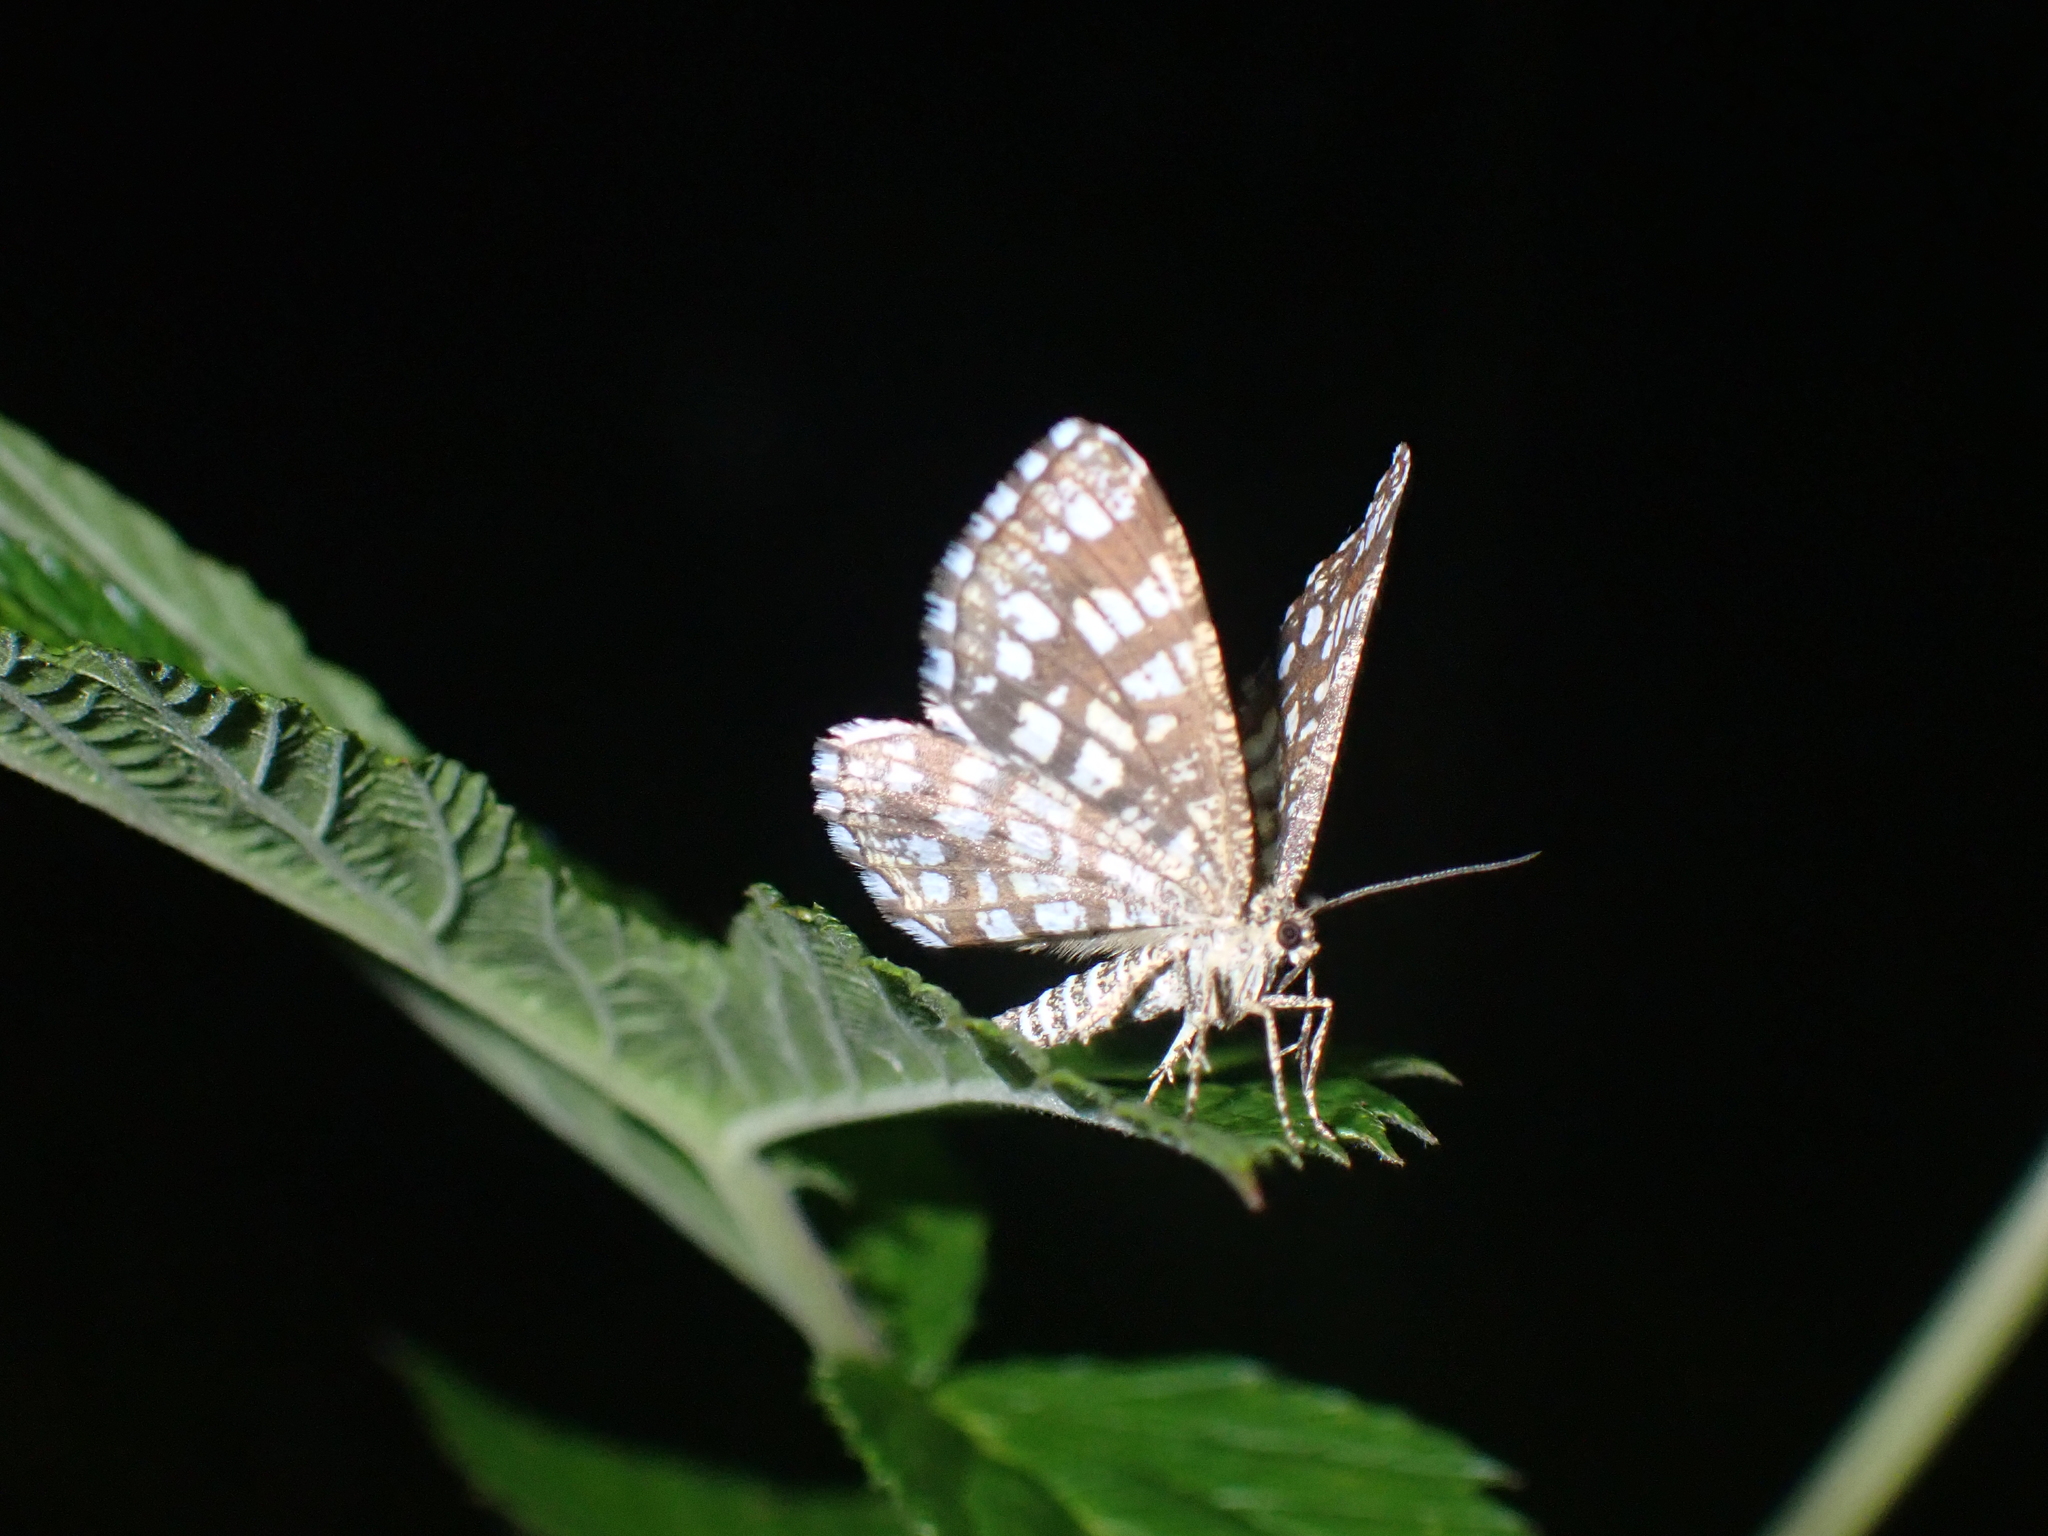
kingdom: Animalia
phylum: Arthropoda
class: Insecta
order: Lepidoptera
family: Geometridae
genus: Chiasmia
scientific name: Chiasmia clathrata
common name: Latticed heath
